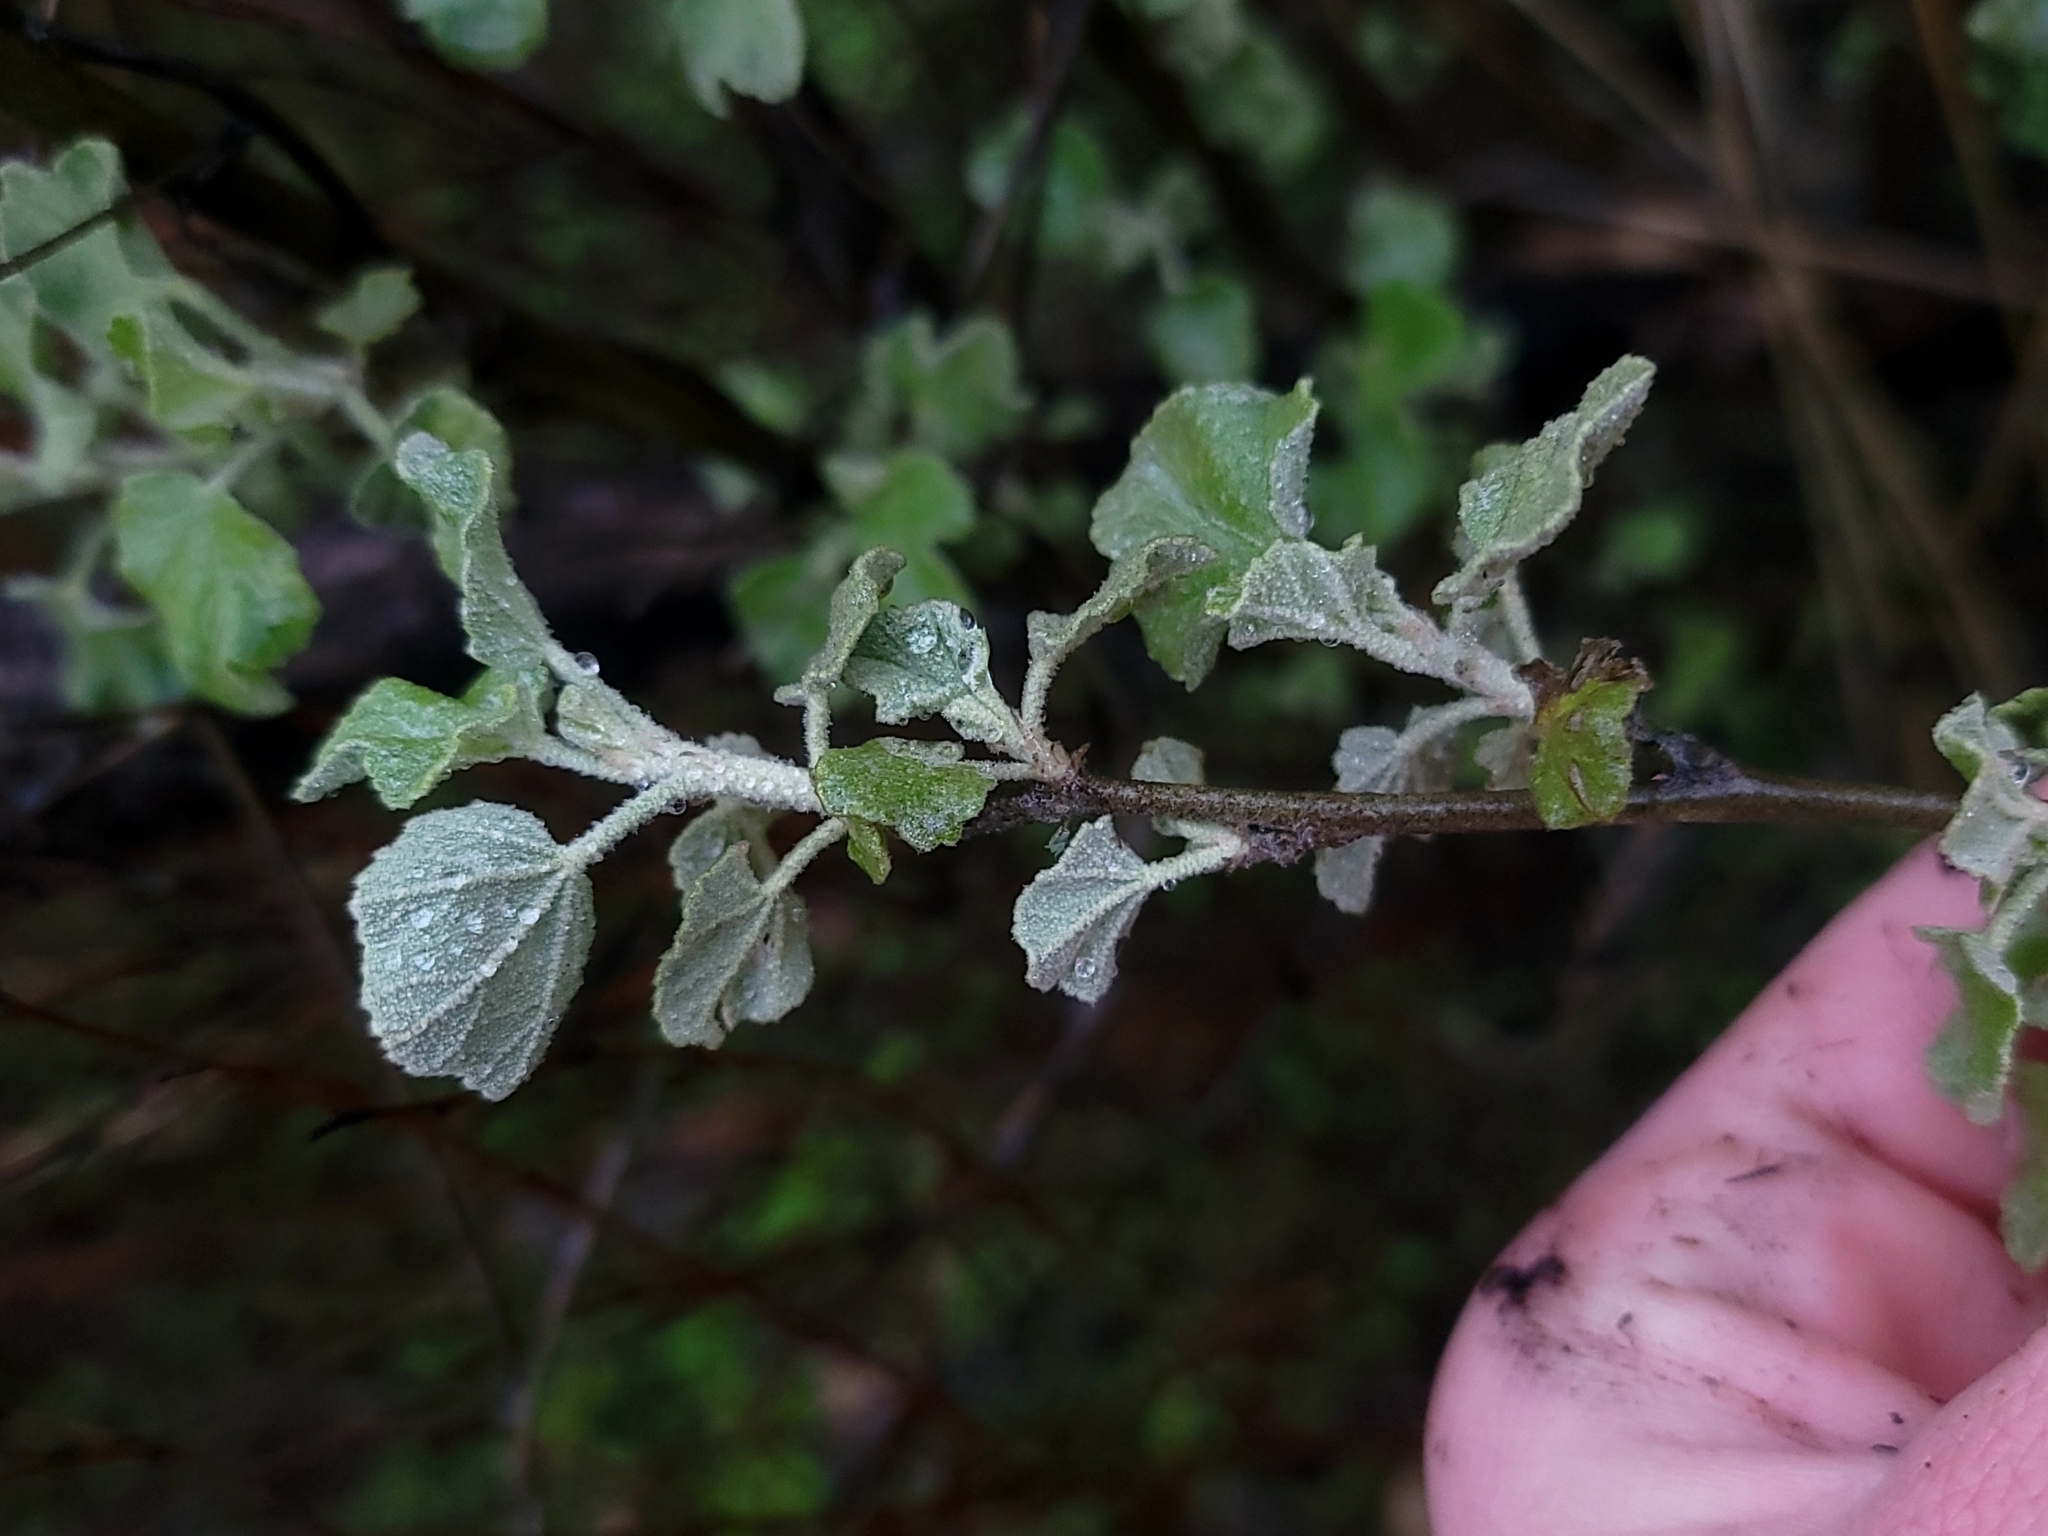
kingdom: Plantae
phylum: Tracheophyta
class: Magnoliopsida
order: Malvales
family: Malvaceae
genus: Malacothamnus
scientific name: Malacothamnus fasciculatus
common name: Sant cruz island bush-mallow
